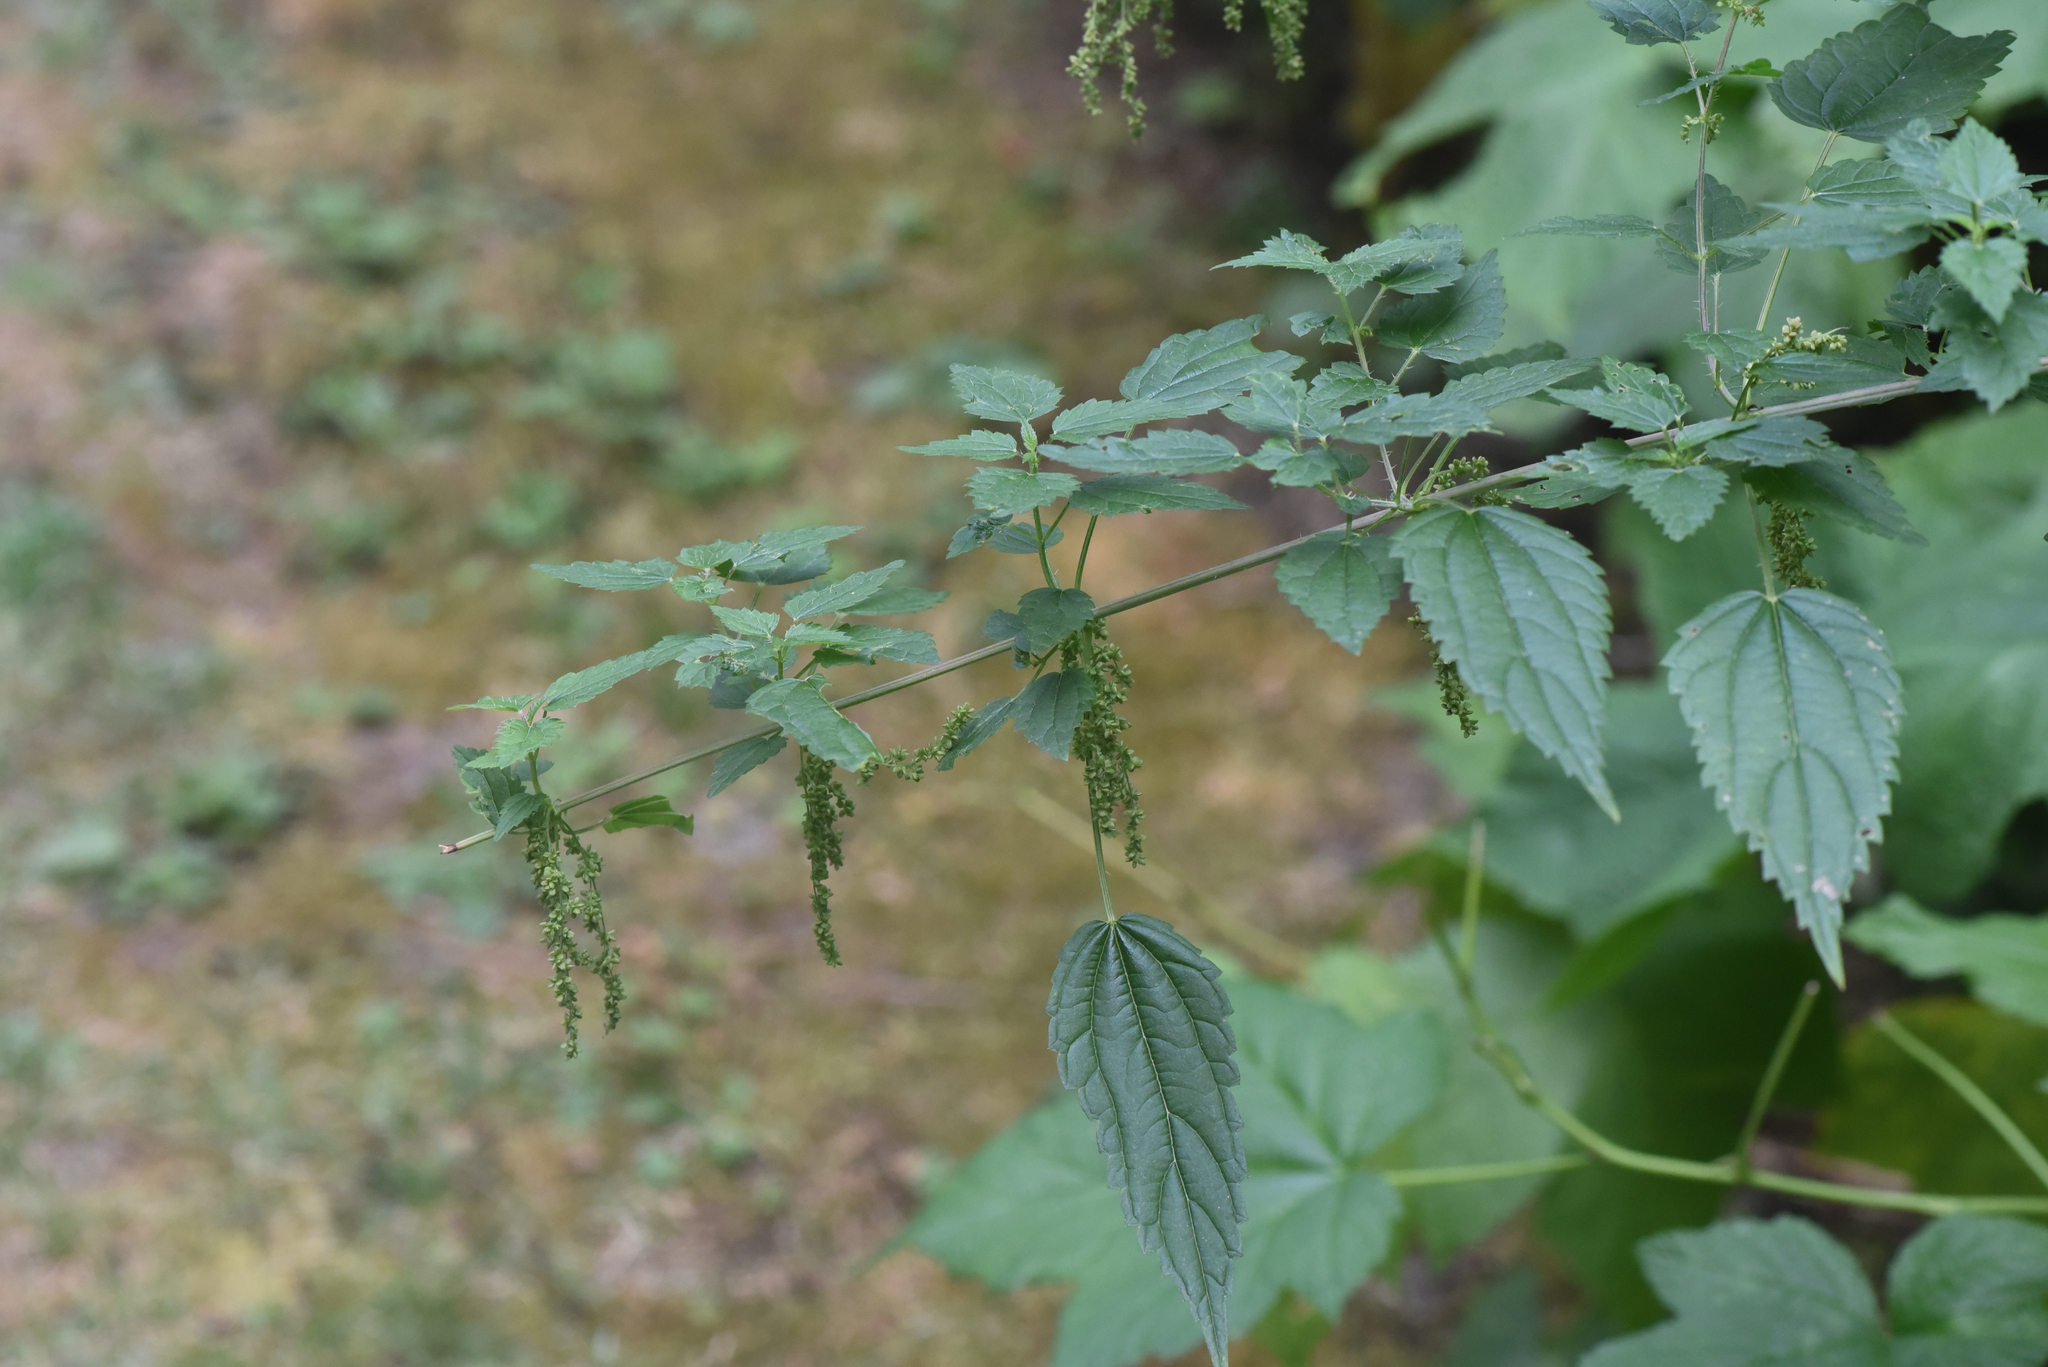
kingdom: Plantae
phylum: Tracheophyta
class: Magnoliopsida
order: Rosales
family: Urticaceae
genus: Urtica
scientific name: Urtica gracilis
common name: Slender stinging nettle
